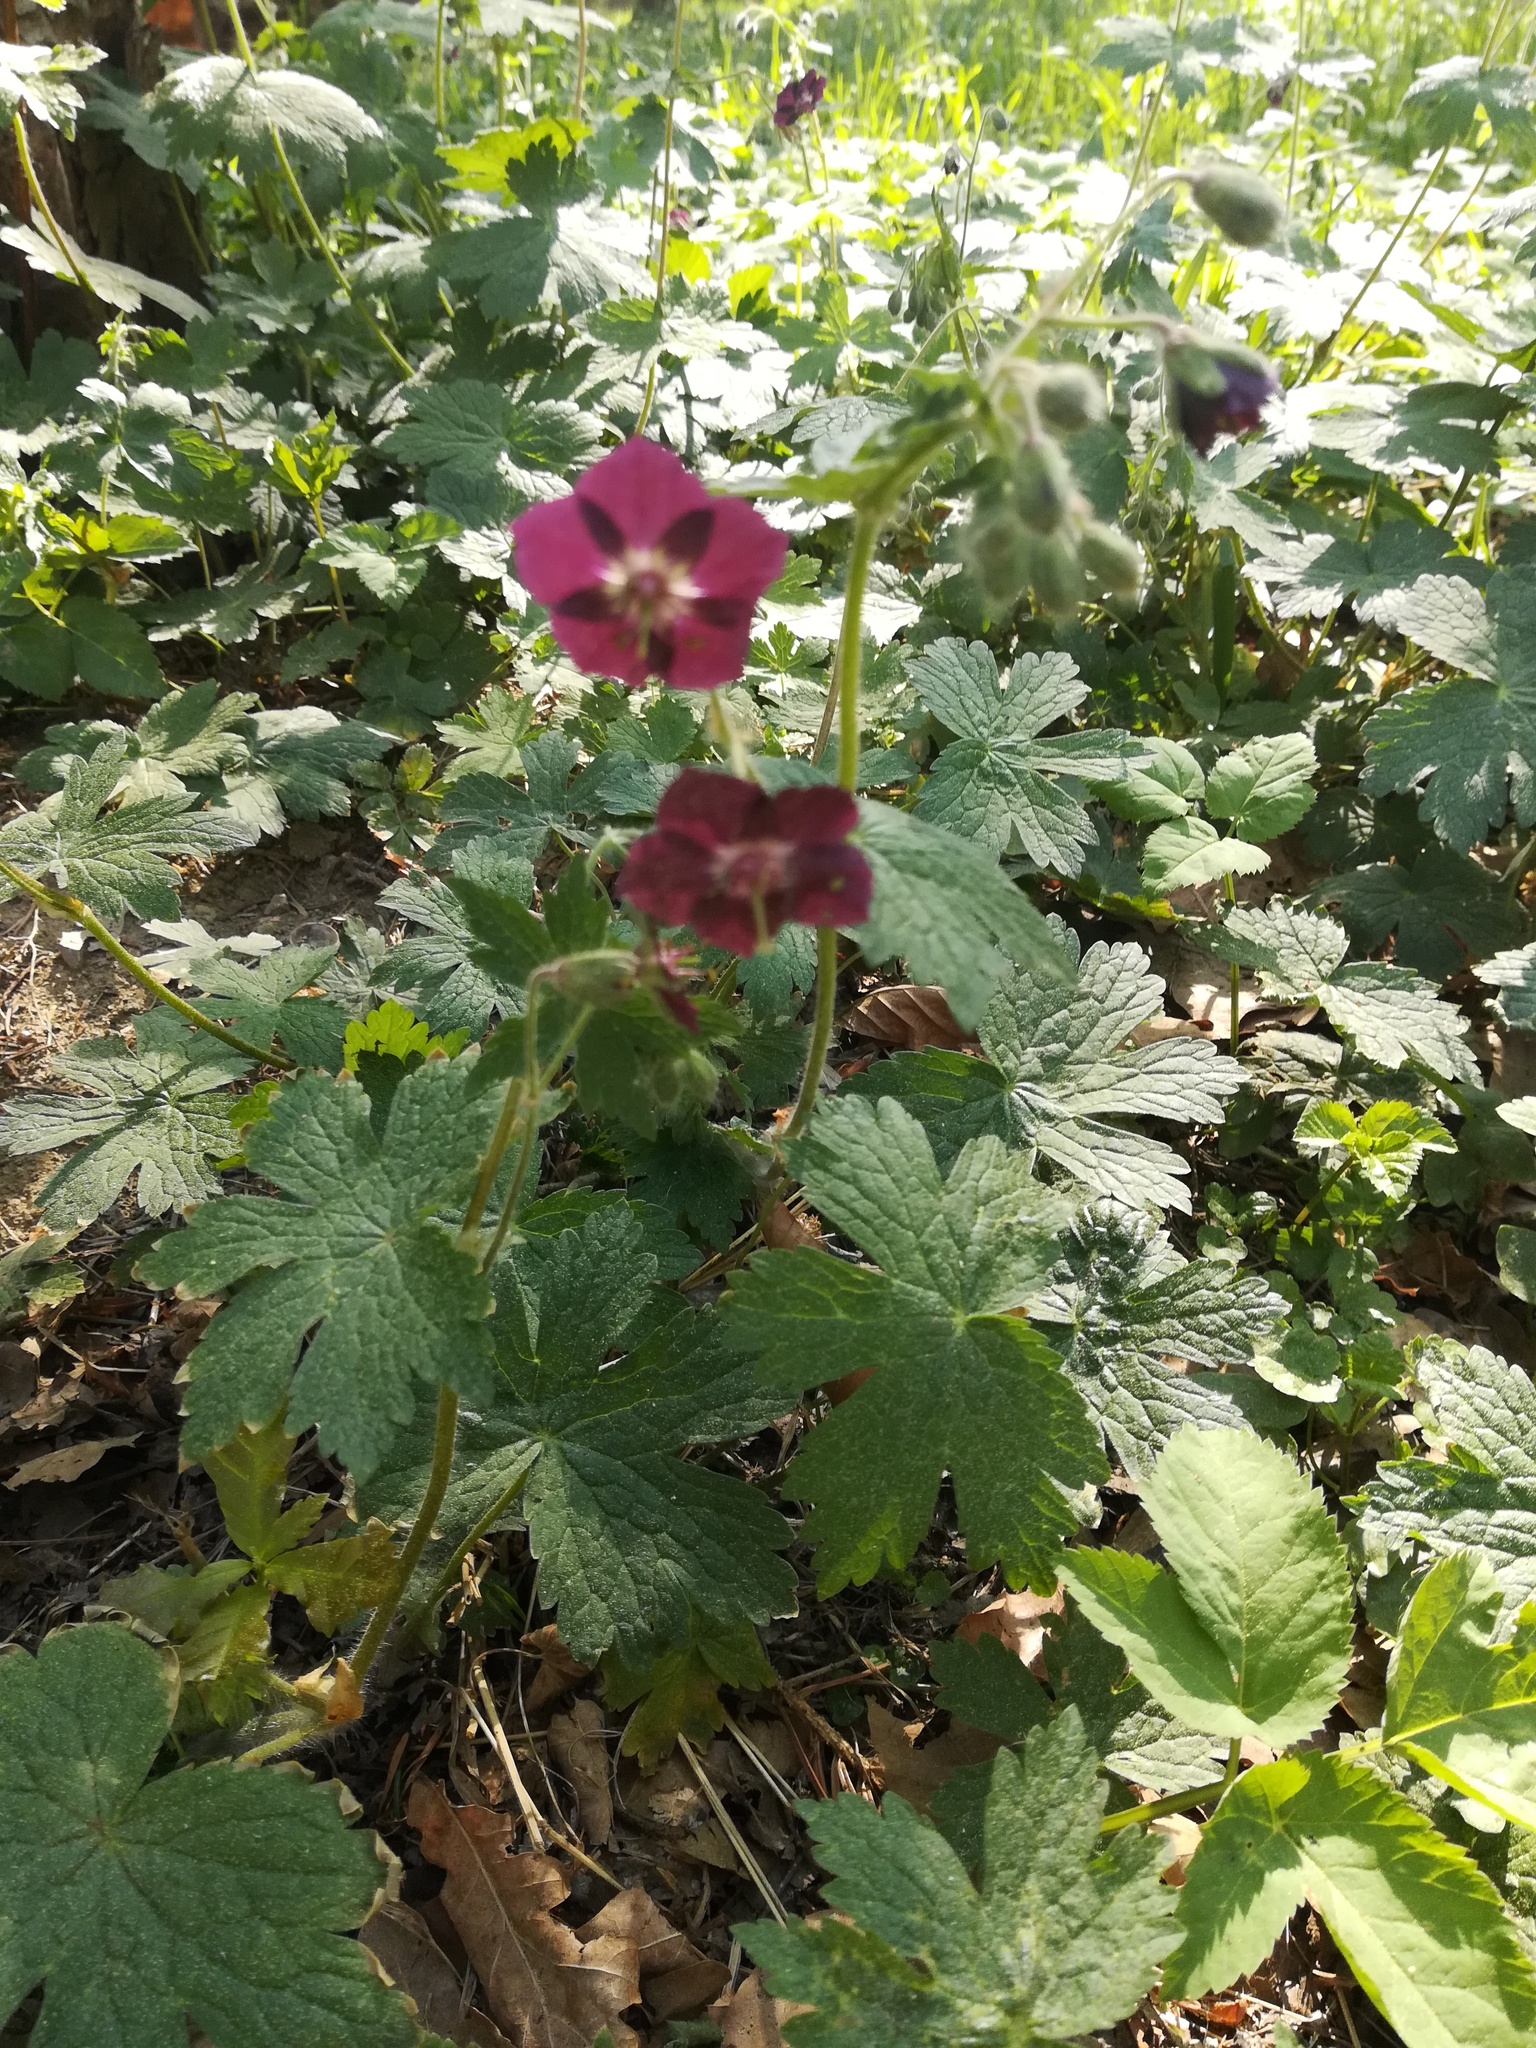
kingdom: Plantae
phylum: Tracheophyta
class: Magnoliopsida
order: Geraniales
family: Geraniaceae
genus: Geranium
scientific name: Geranium phaeum
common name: Dusky crane's-bill
